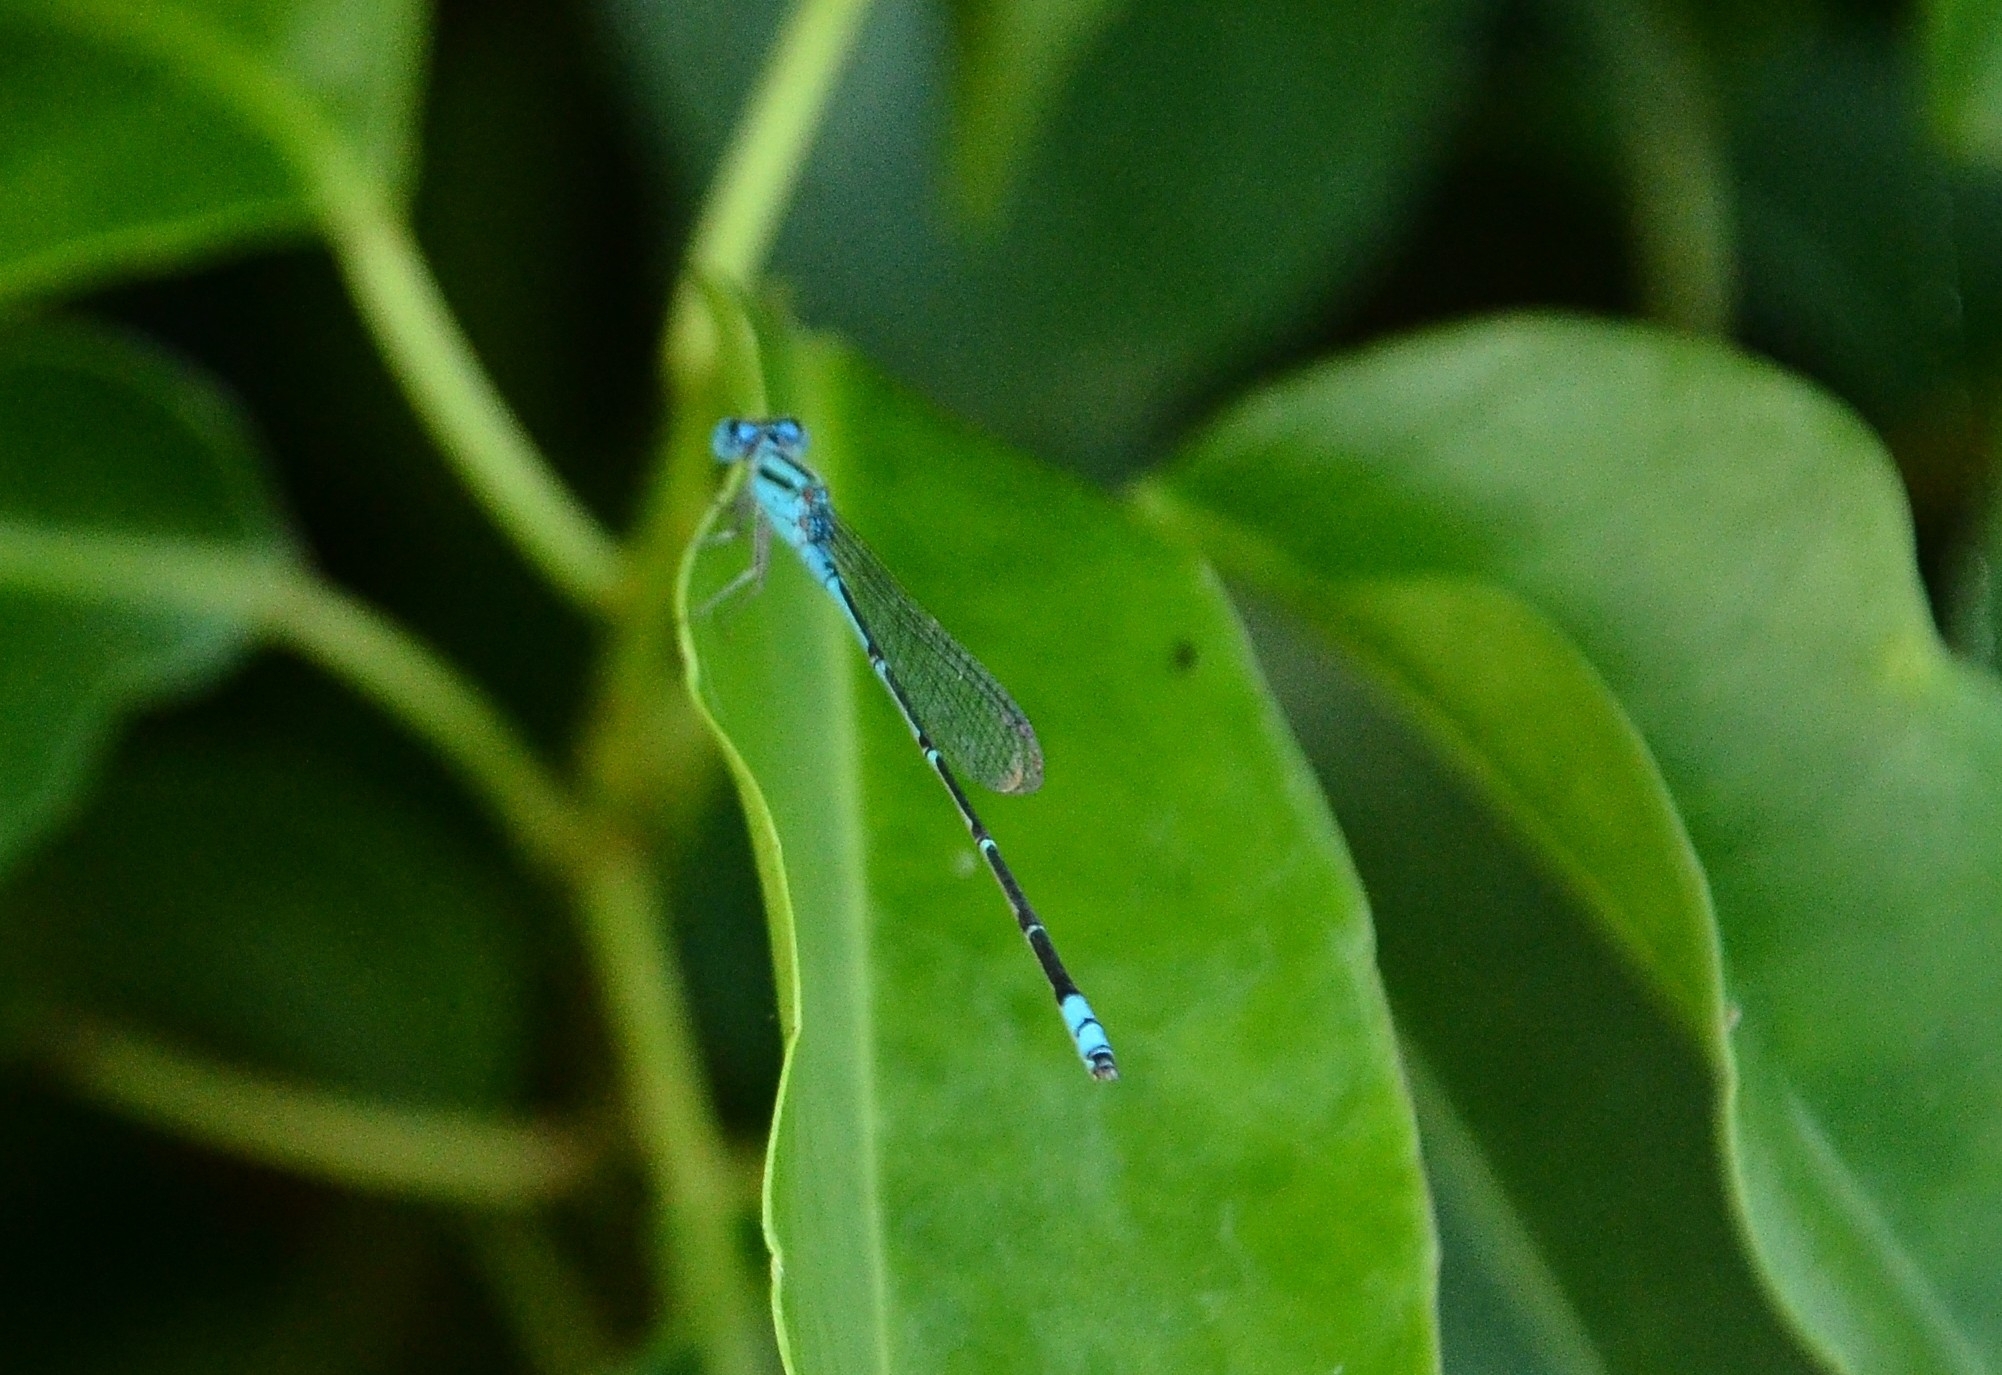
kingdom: Animalia
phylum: Arthropoda
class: Insecta
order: Odonata
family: Coenagrionidae
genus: Pseudagrion
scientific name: Pseudagrion microcephalum
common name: Blue riverdamsel
